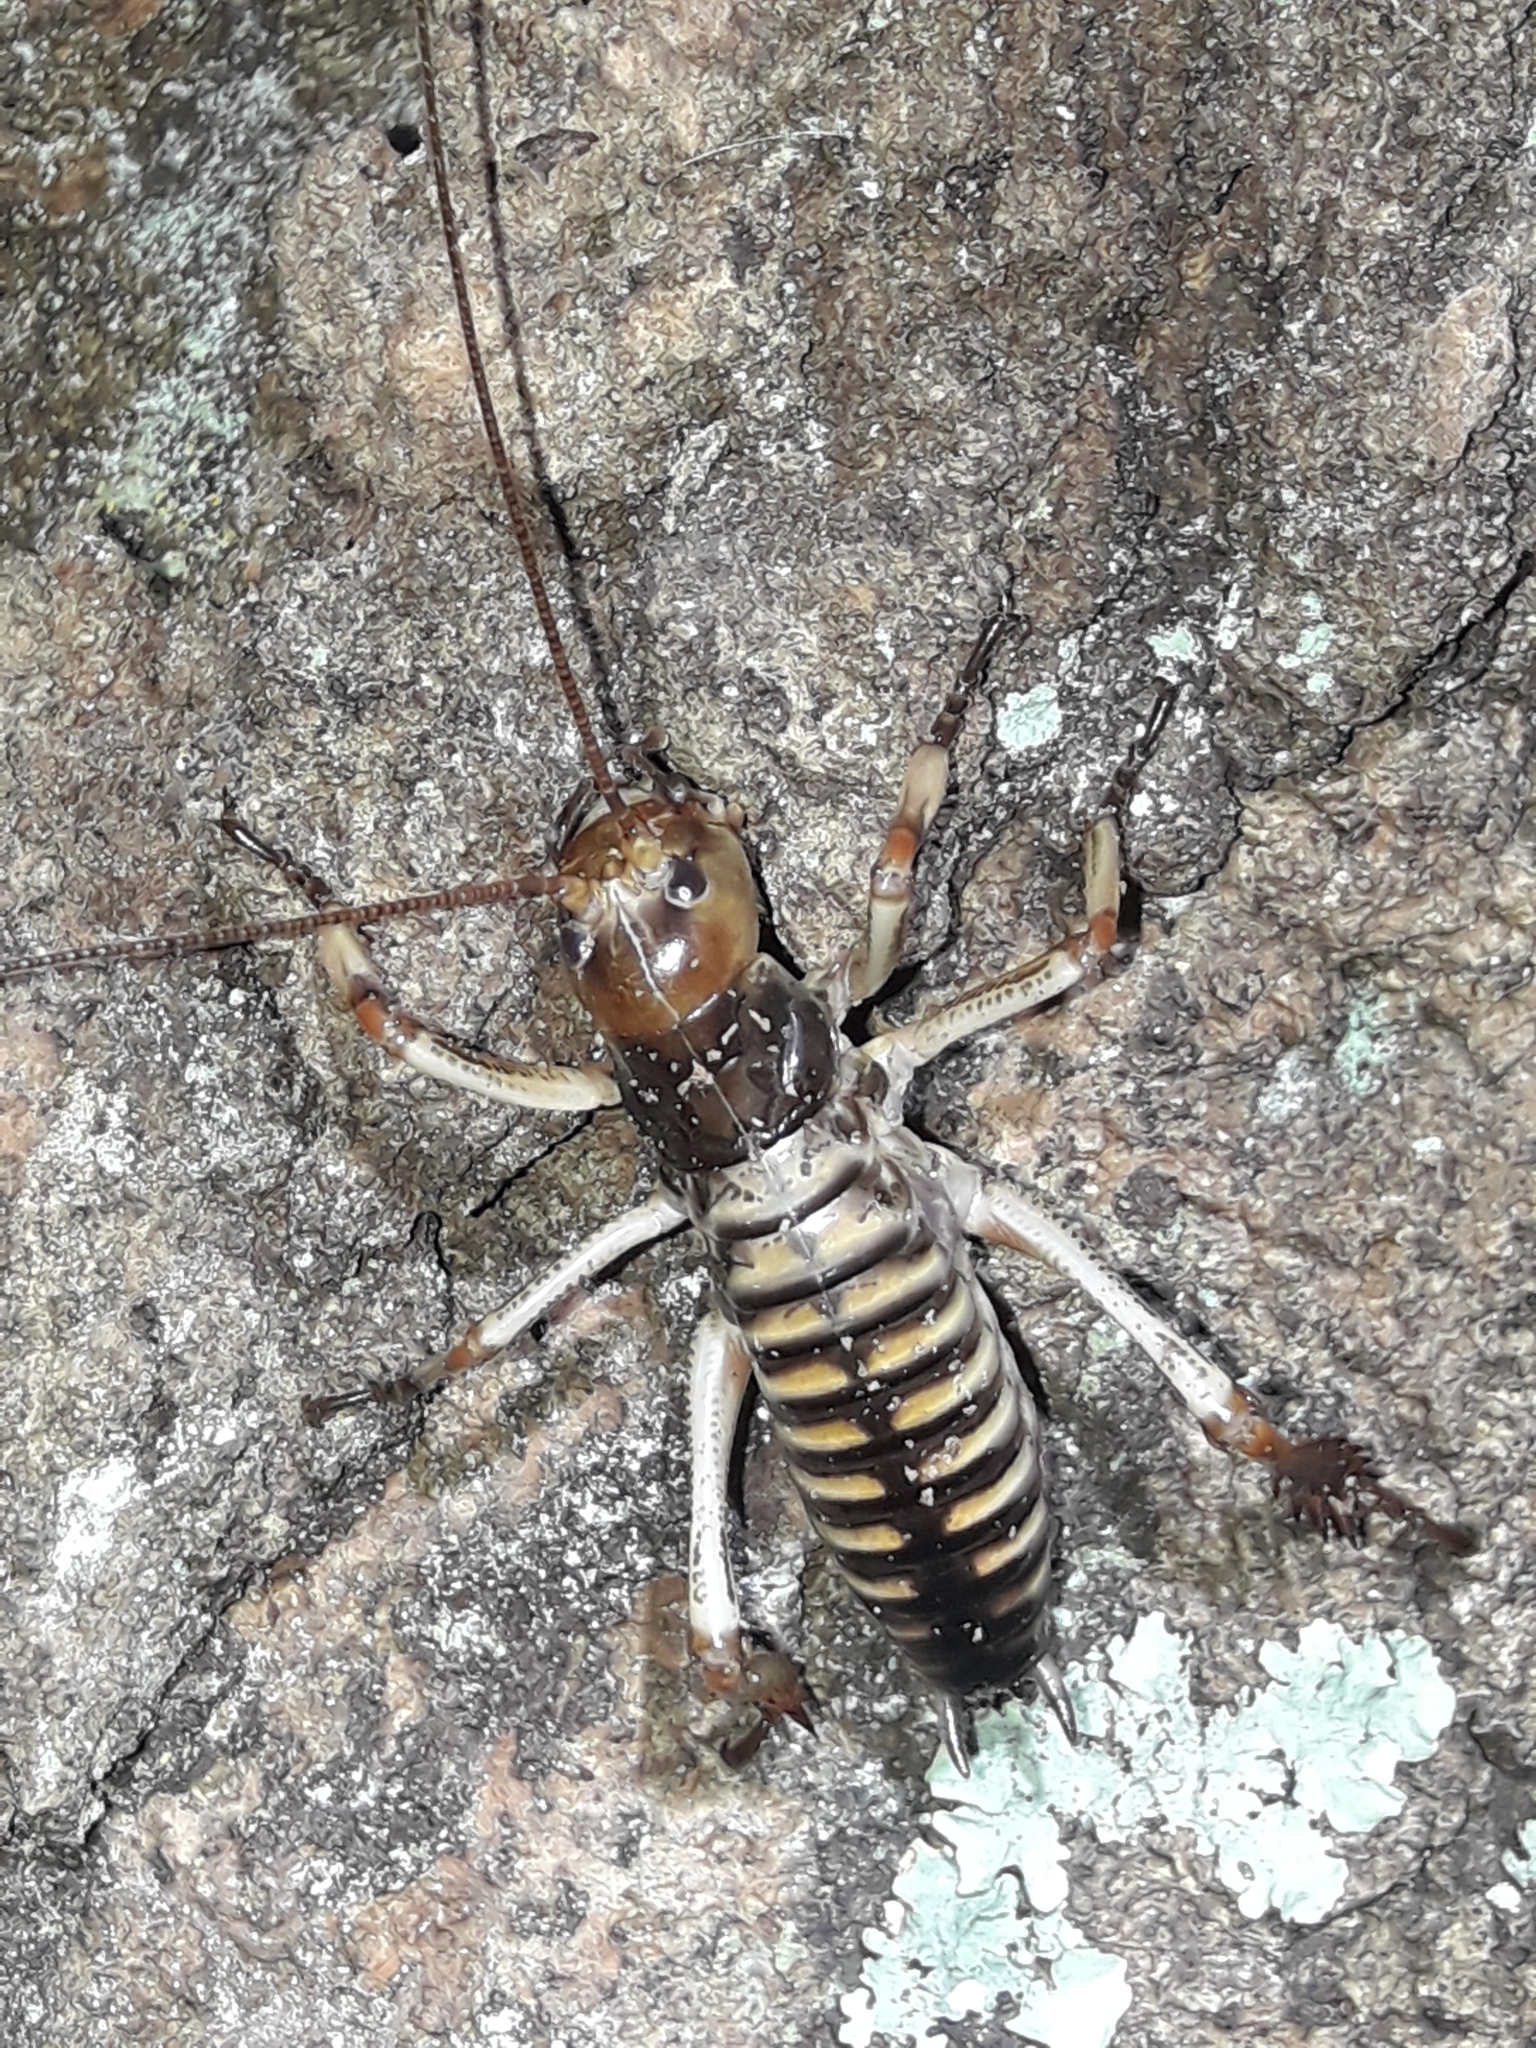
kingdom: Animalia
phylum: Arthropoda
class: Insecta
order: Orthoptera
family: Anostostomatidae
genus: Hemideina
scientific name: Hemideina crassidens
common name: Wellington tree weta
